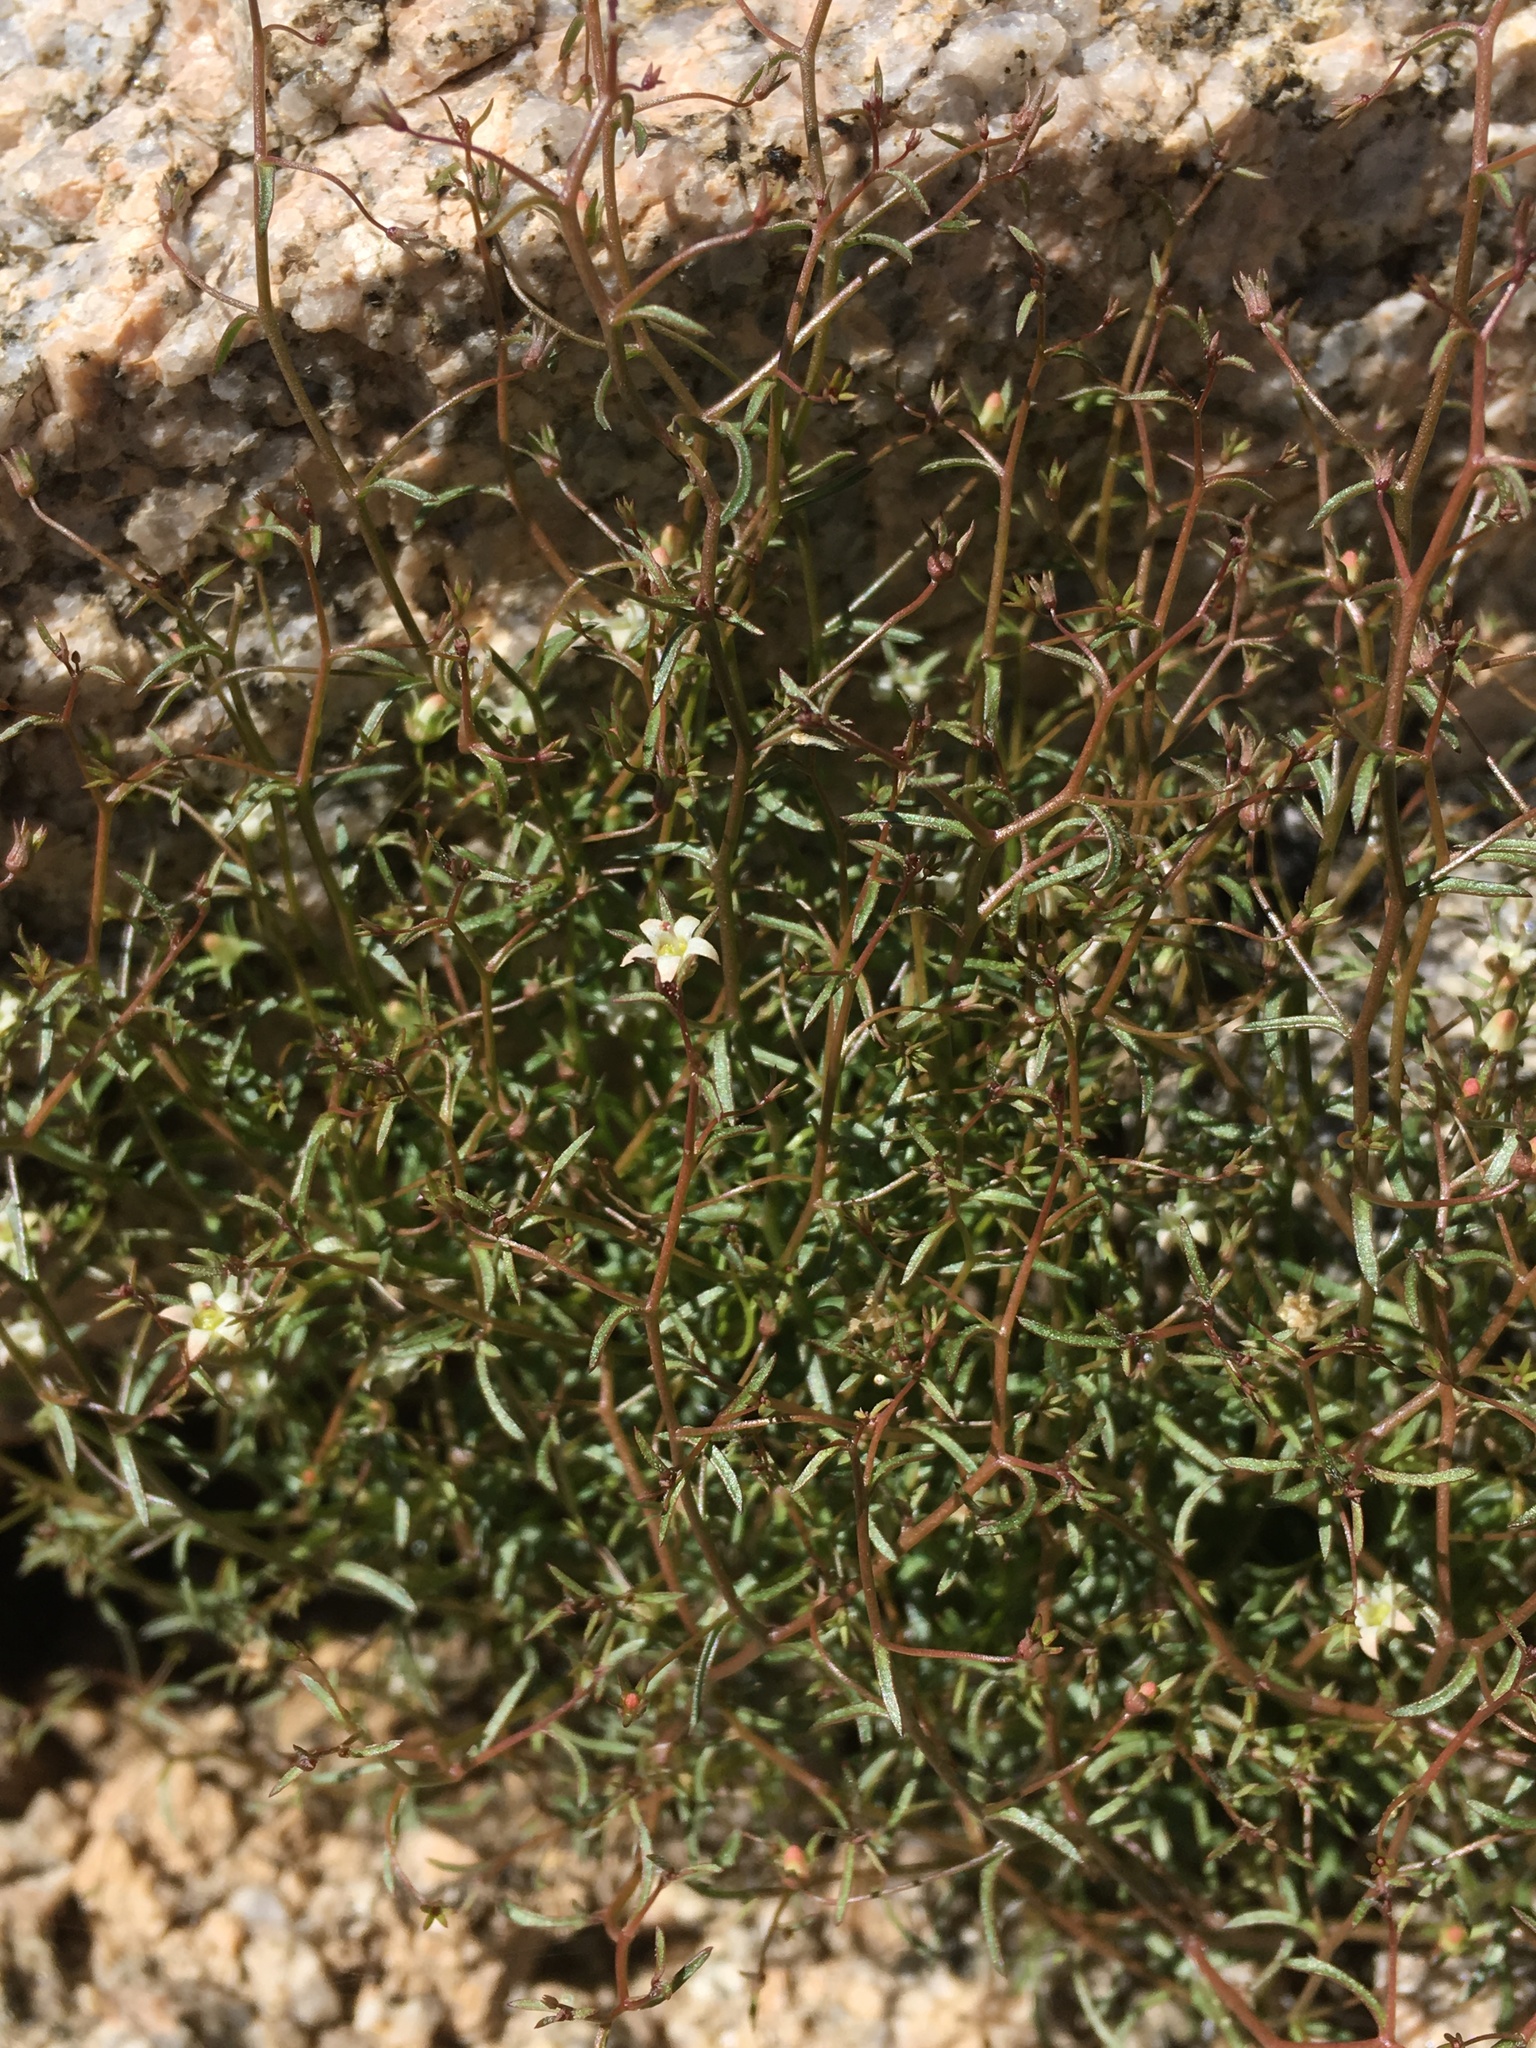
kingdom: Plantae
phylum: Tracheophyta
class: Magnoliopsida
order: Asterales
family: Campanulaceae
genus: Nemacladus
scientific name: Nemacladus glanduliferus
